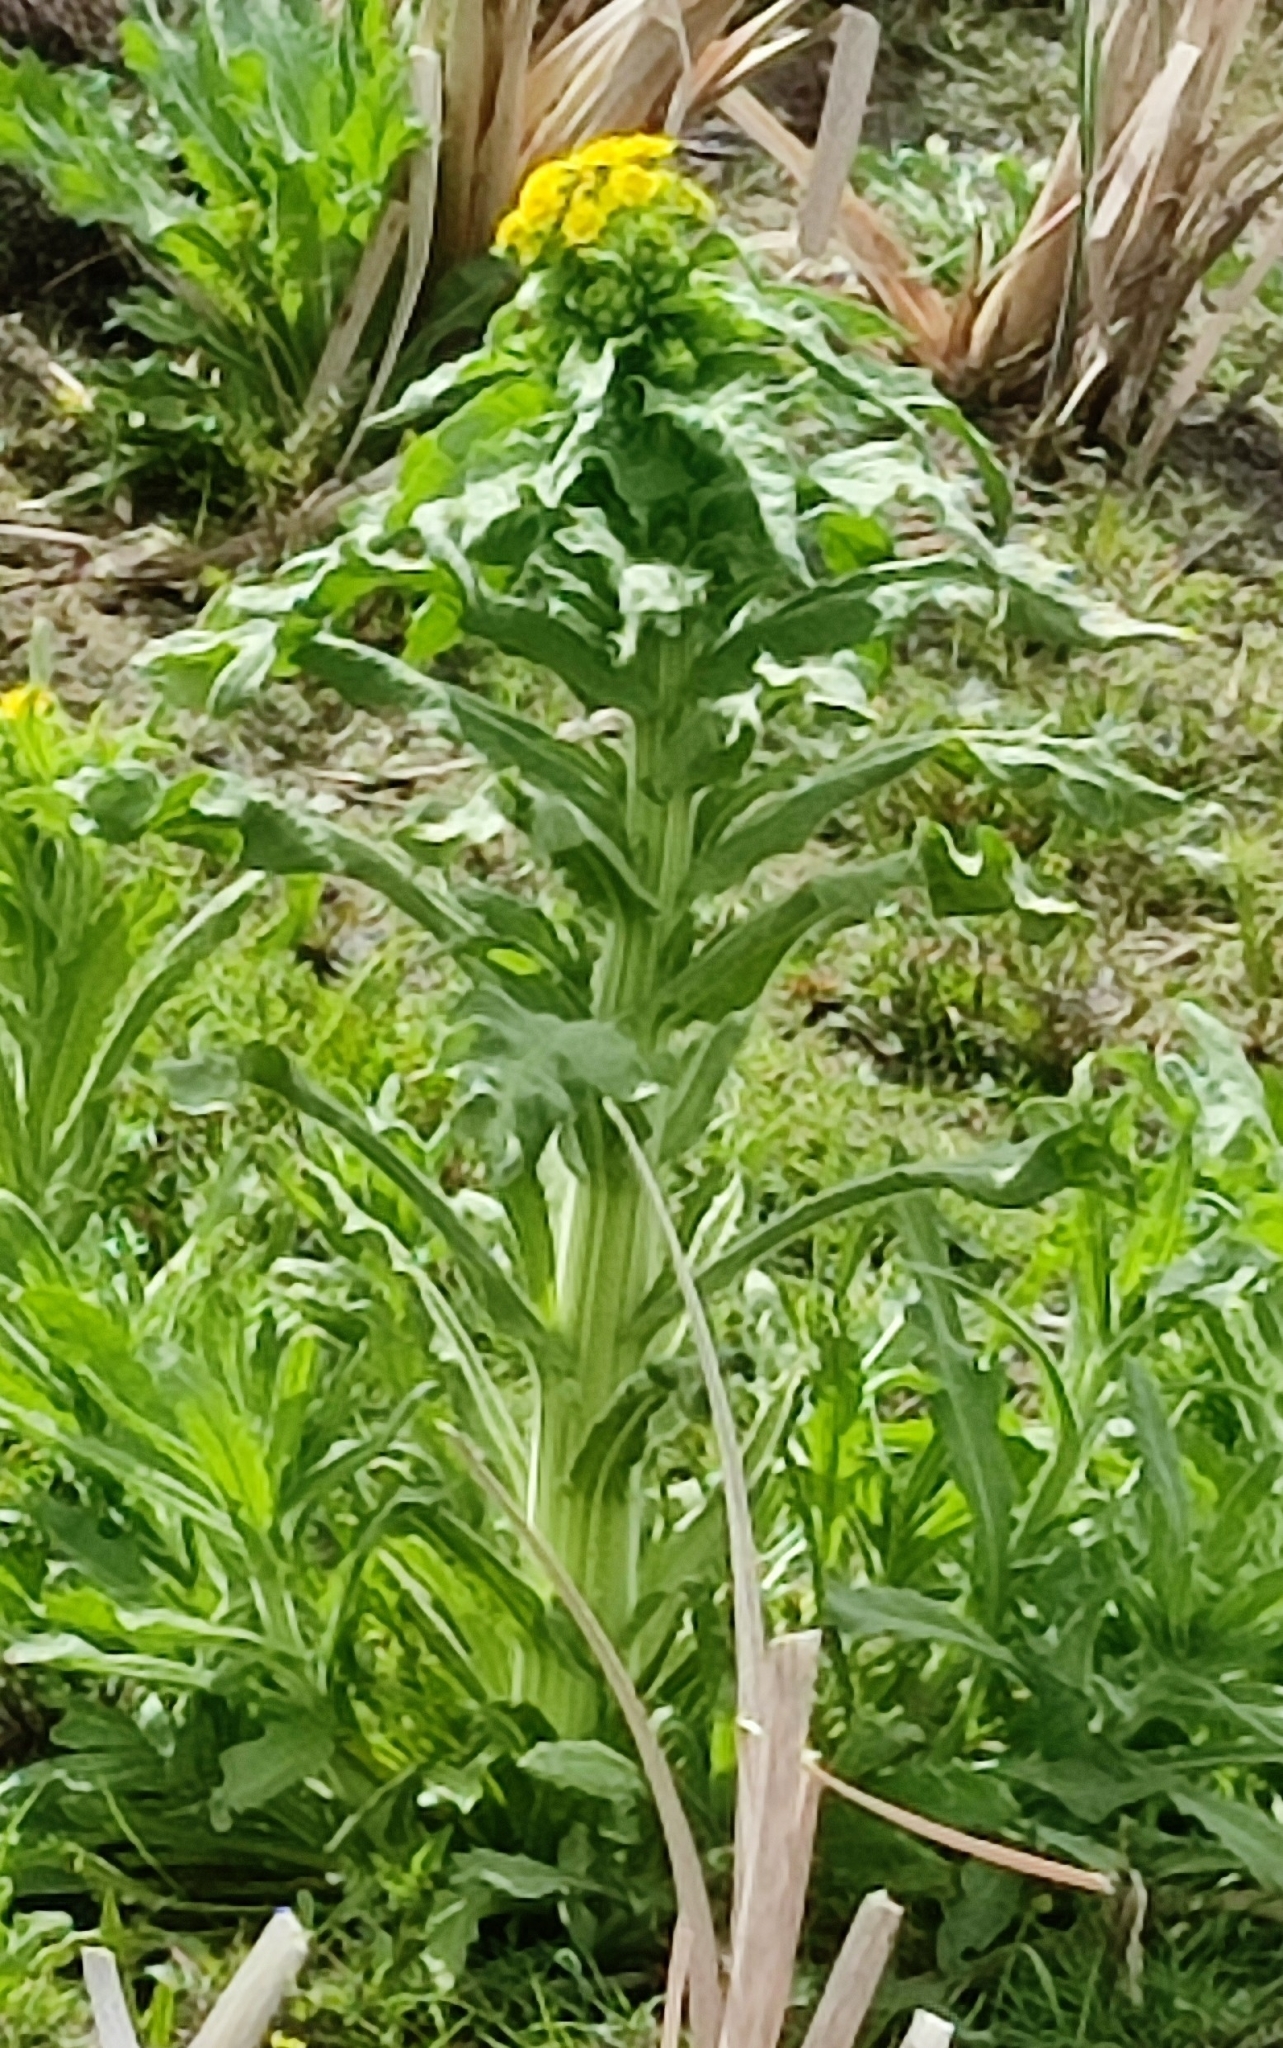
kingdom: Plantae
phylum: Tracheophyta
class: Magnoliopsida
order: Asterales
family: Asteraceae
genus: Tephroseris
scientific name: Tephroseris palustris
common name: Marsh fleawort
